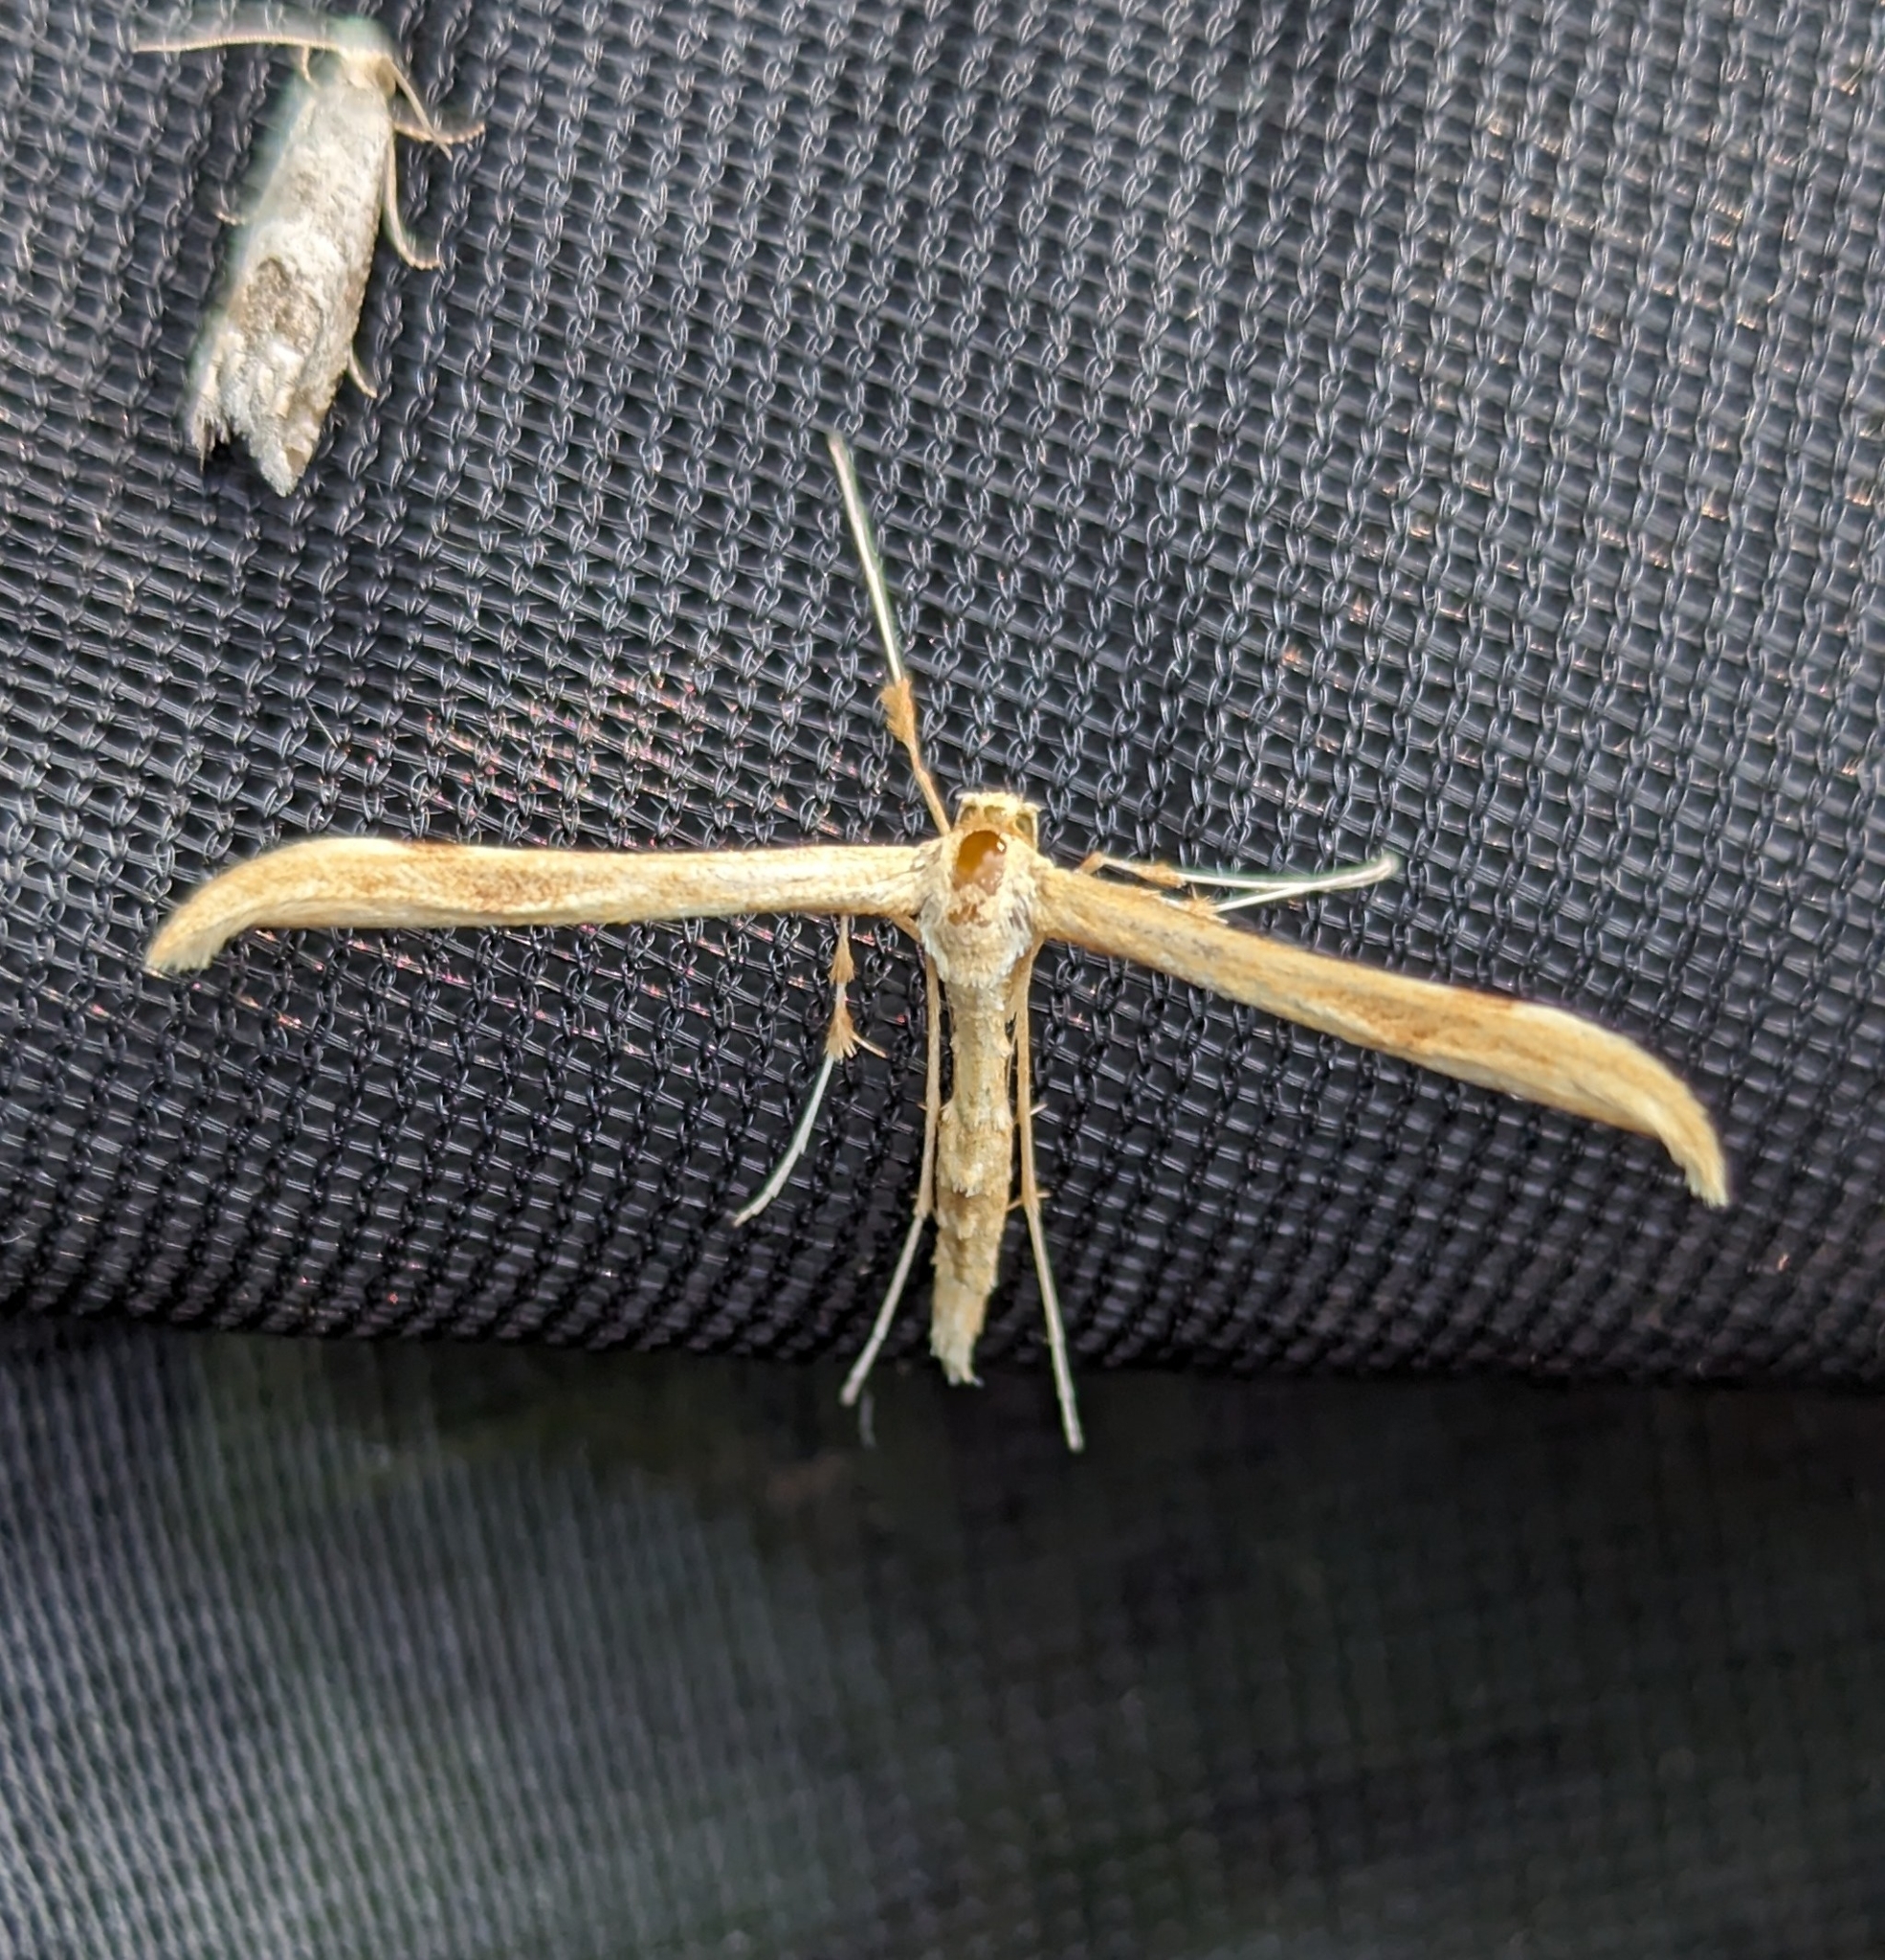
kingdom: Animalia
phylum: Arthropoda
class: Insecta
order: Lepidoptera
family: Pterophoridae
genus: Emmelina
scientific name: Emmelina monodactyla
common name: Common plume
